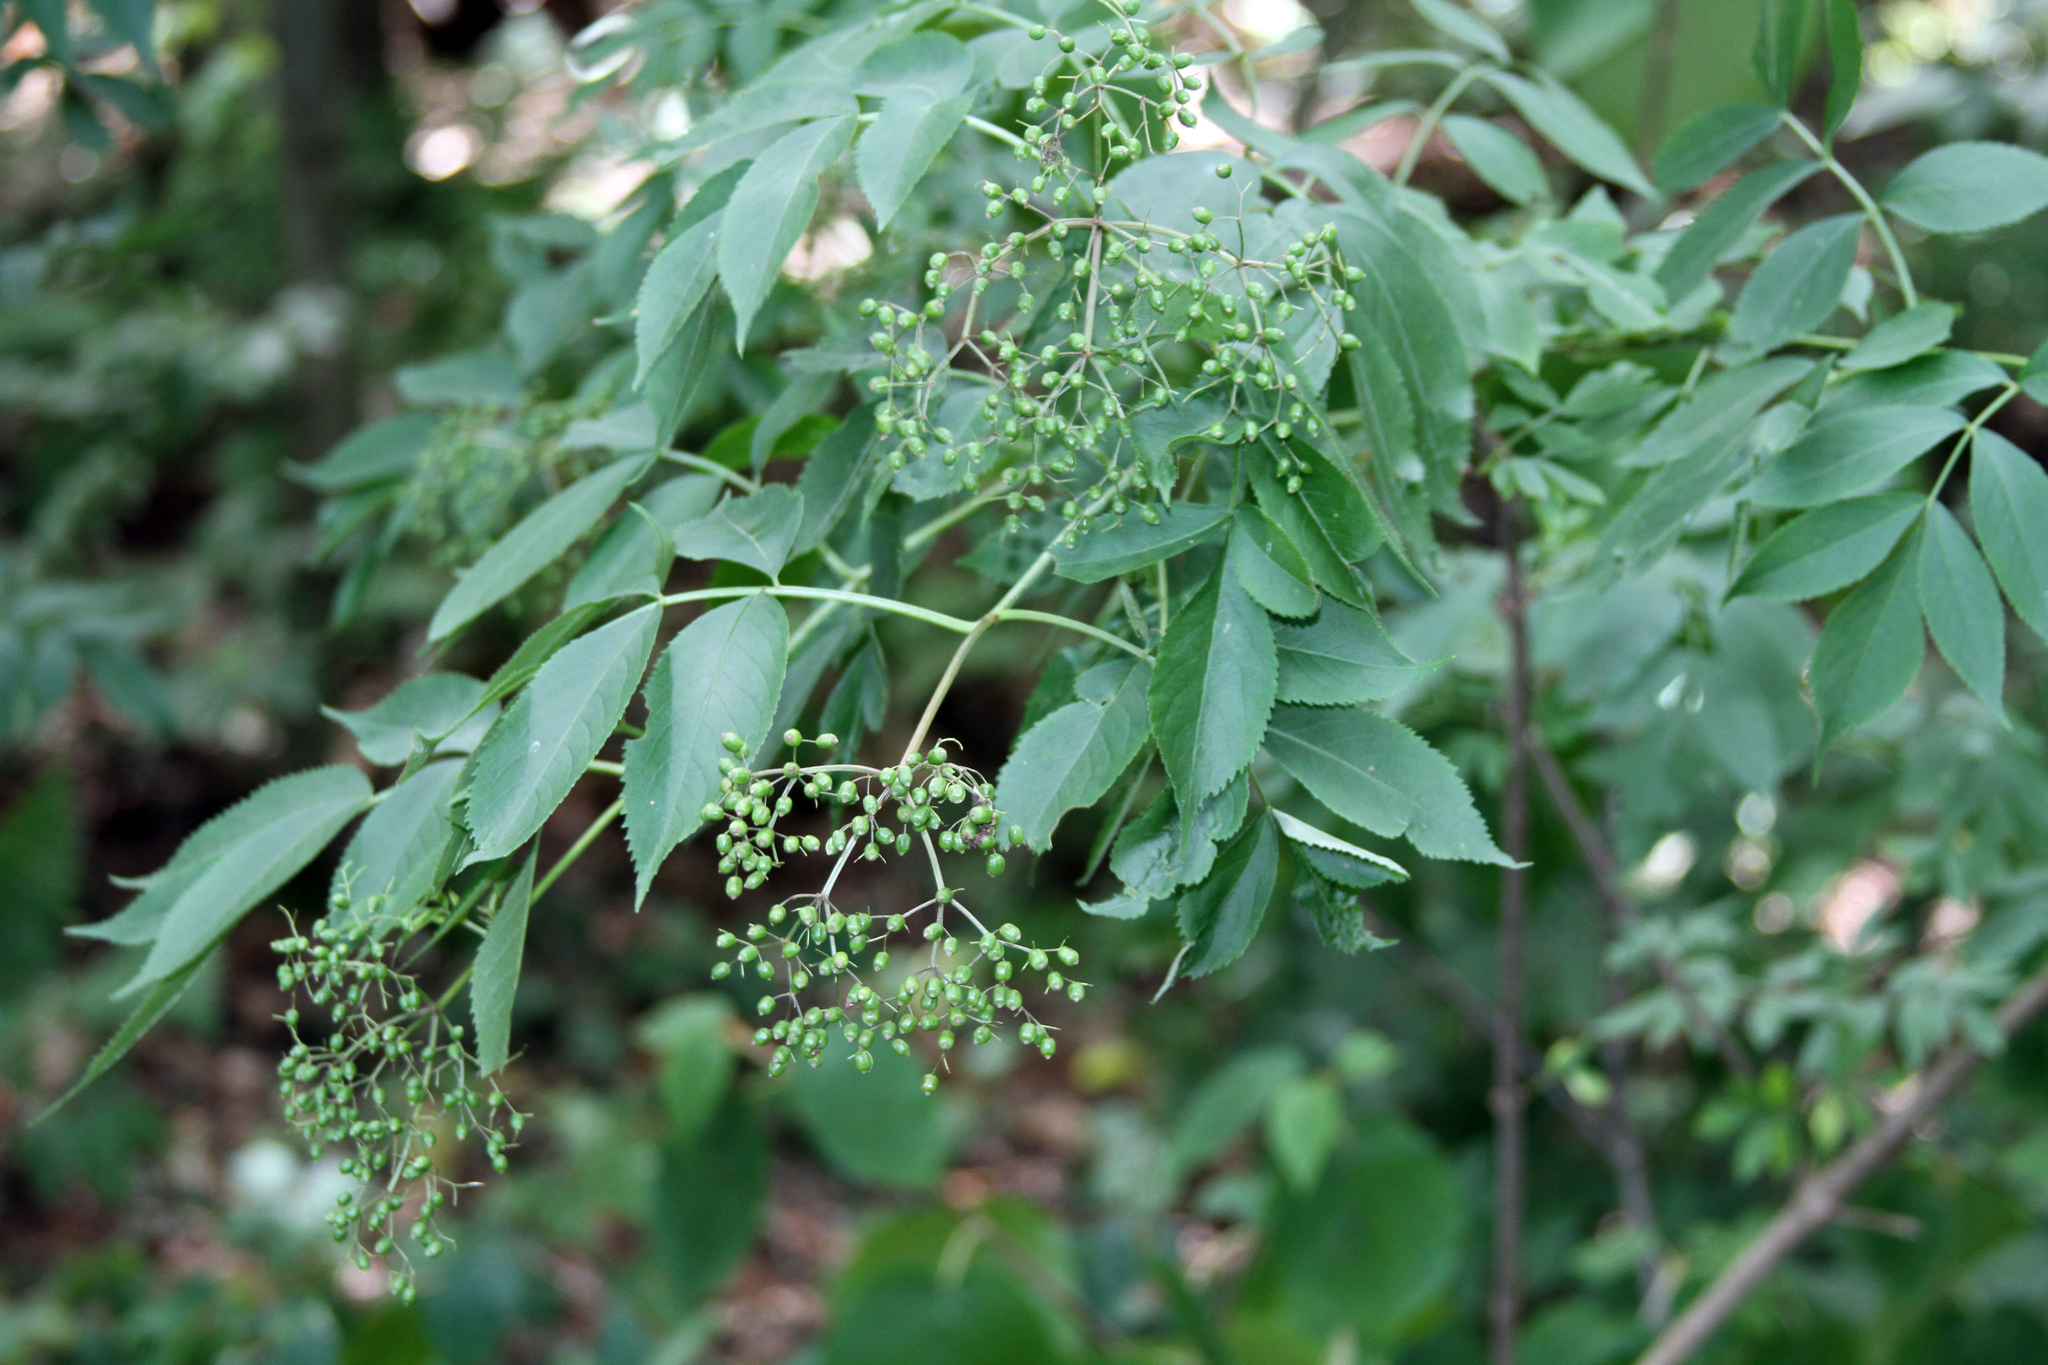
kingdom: Plantae
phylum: Tracheophyta
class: Magnoliopsida
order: Dipsacales
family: Viburnaceae
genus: Sambucus
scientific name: Sambucus canadensis
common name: American elder
